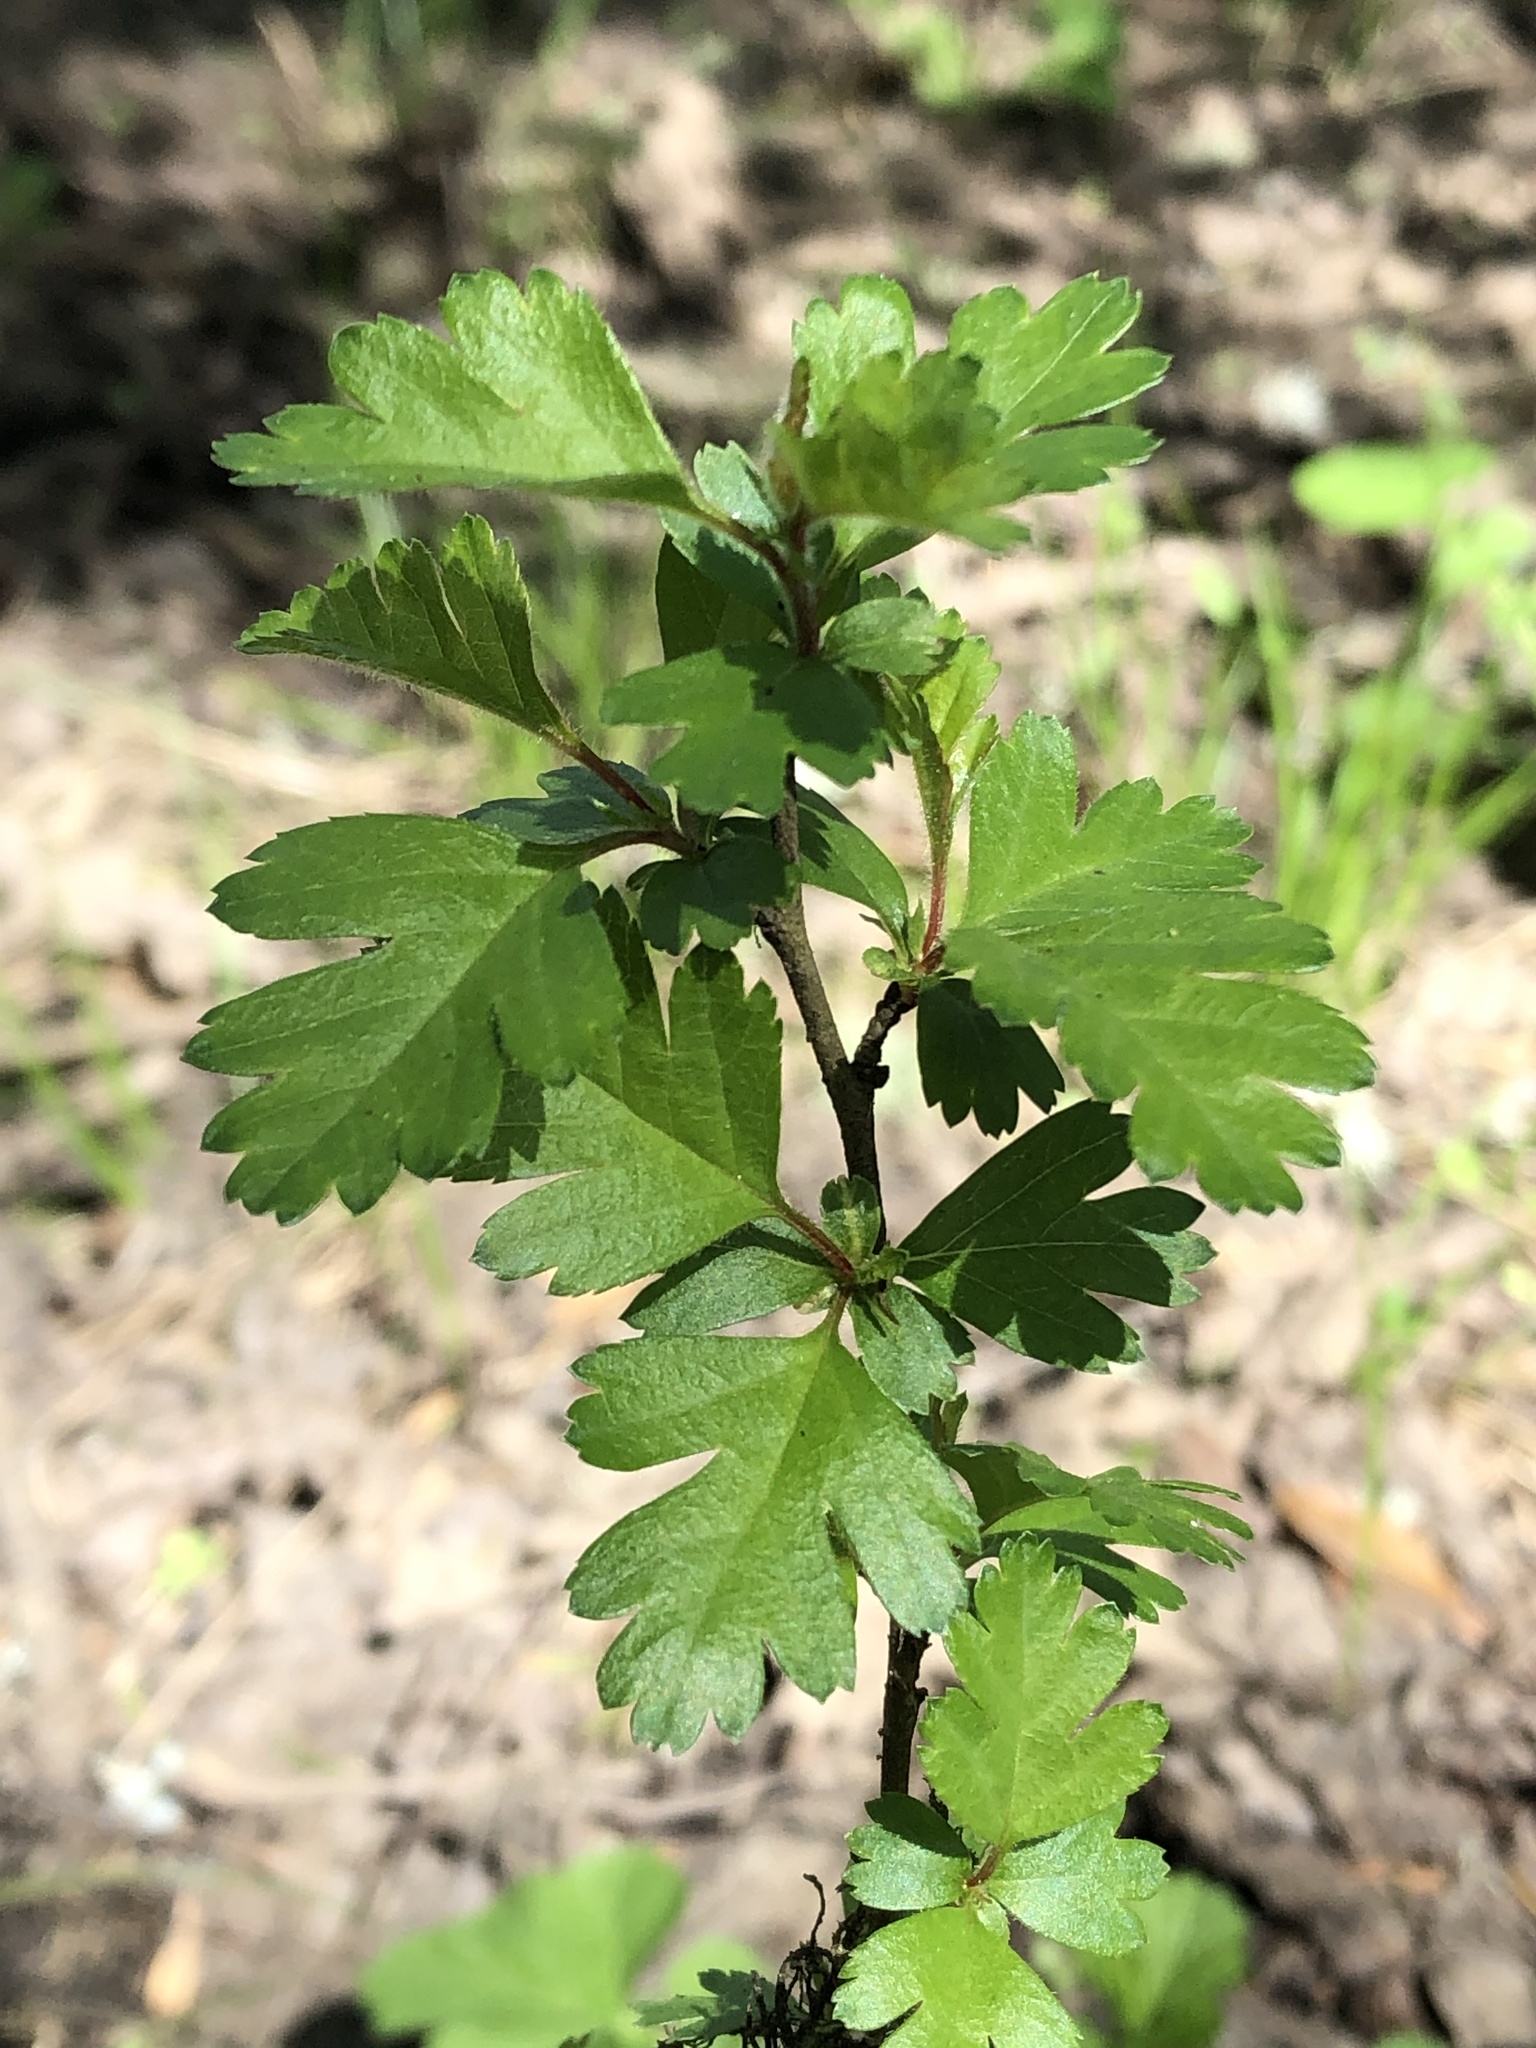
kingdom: Plantae
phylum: Tracheophyta
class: Magnoliopsida
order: Rosales
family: Rosaceae
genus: Crataegus
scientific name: Crataegus monogyna
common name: Hawthorn
